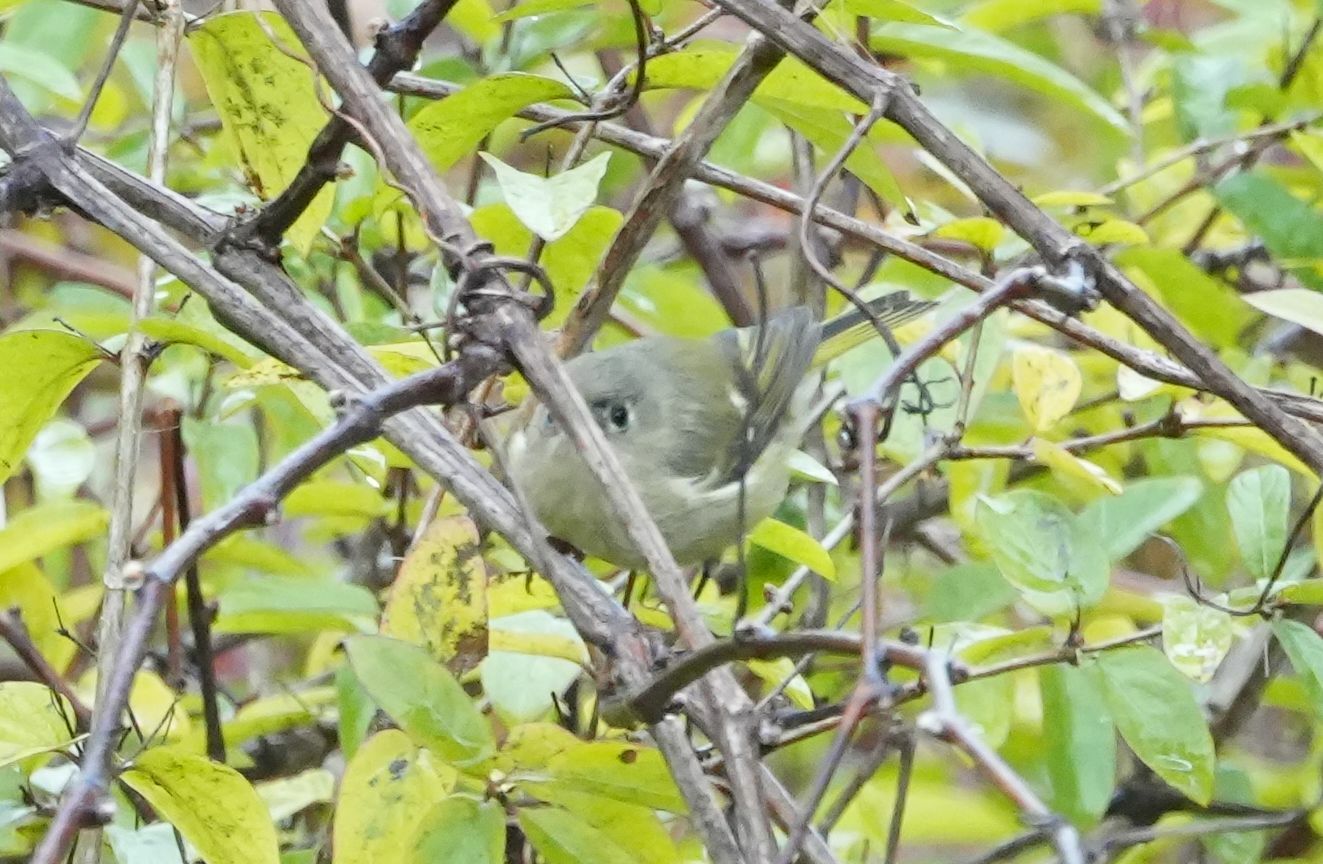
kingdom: Animalia
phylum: Chordata
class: Aves
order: Passeriformes
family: Regulidae
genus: Regulus
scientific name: Regulus calendula
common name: Ruby-crowned kinglet
